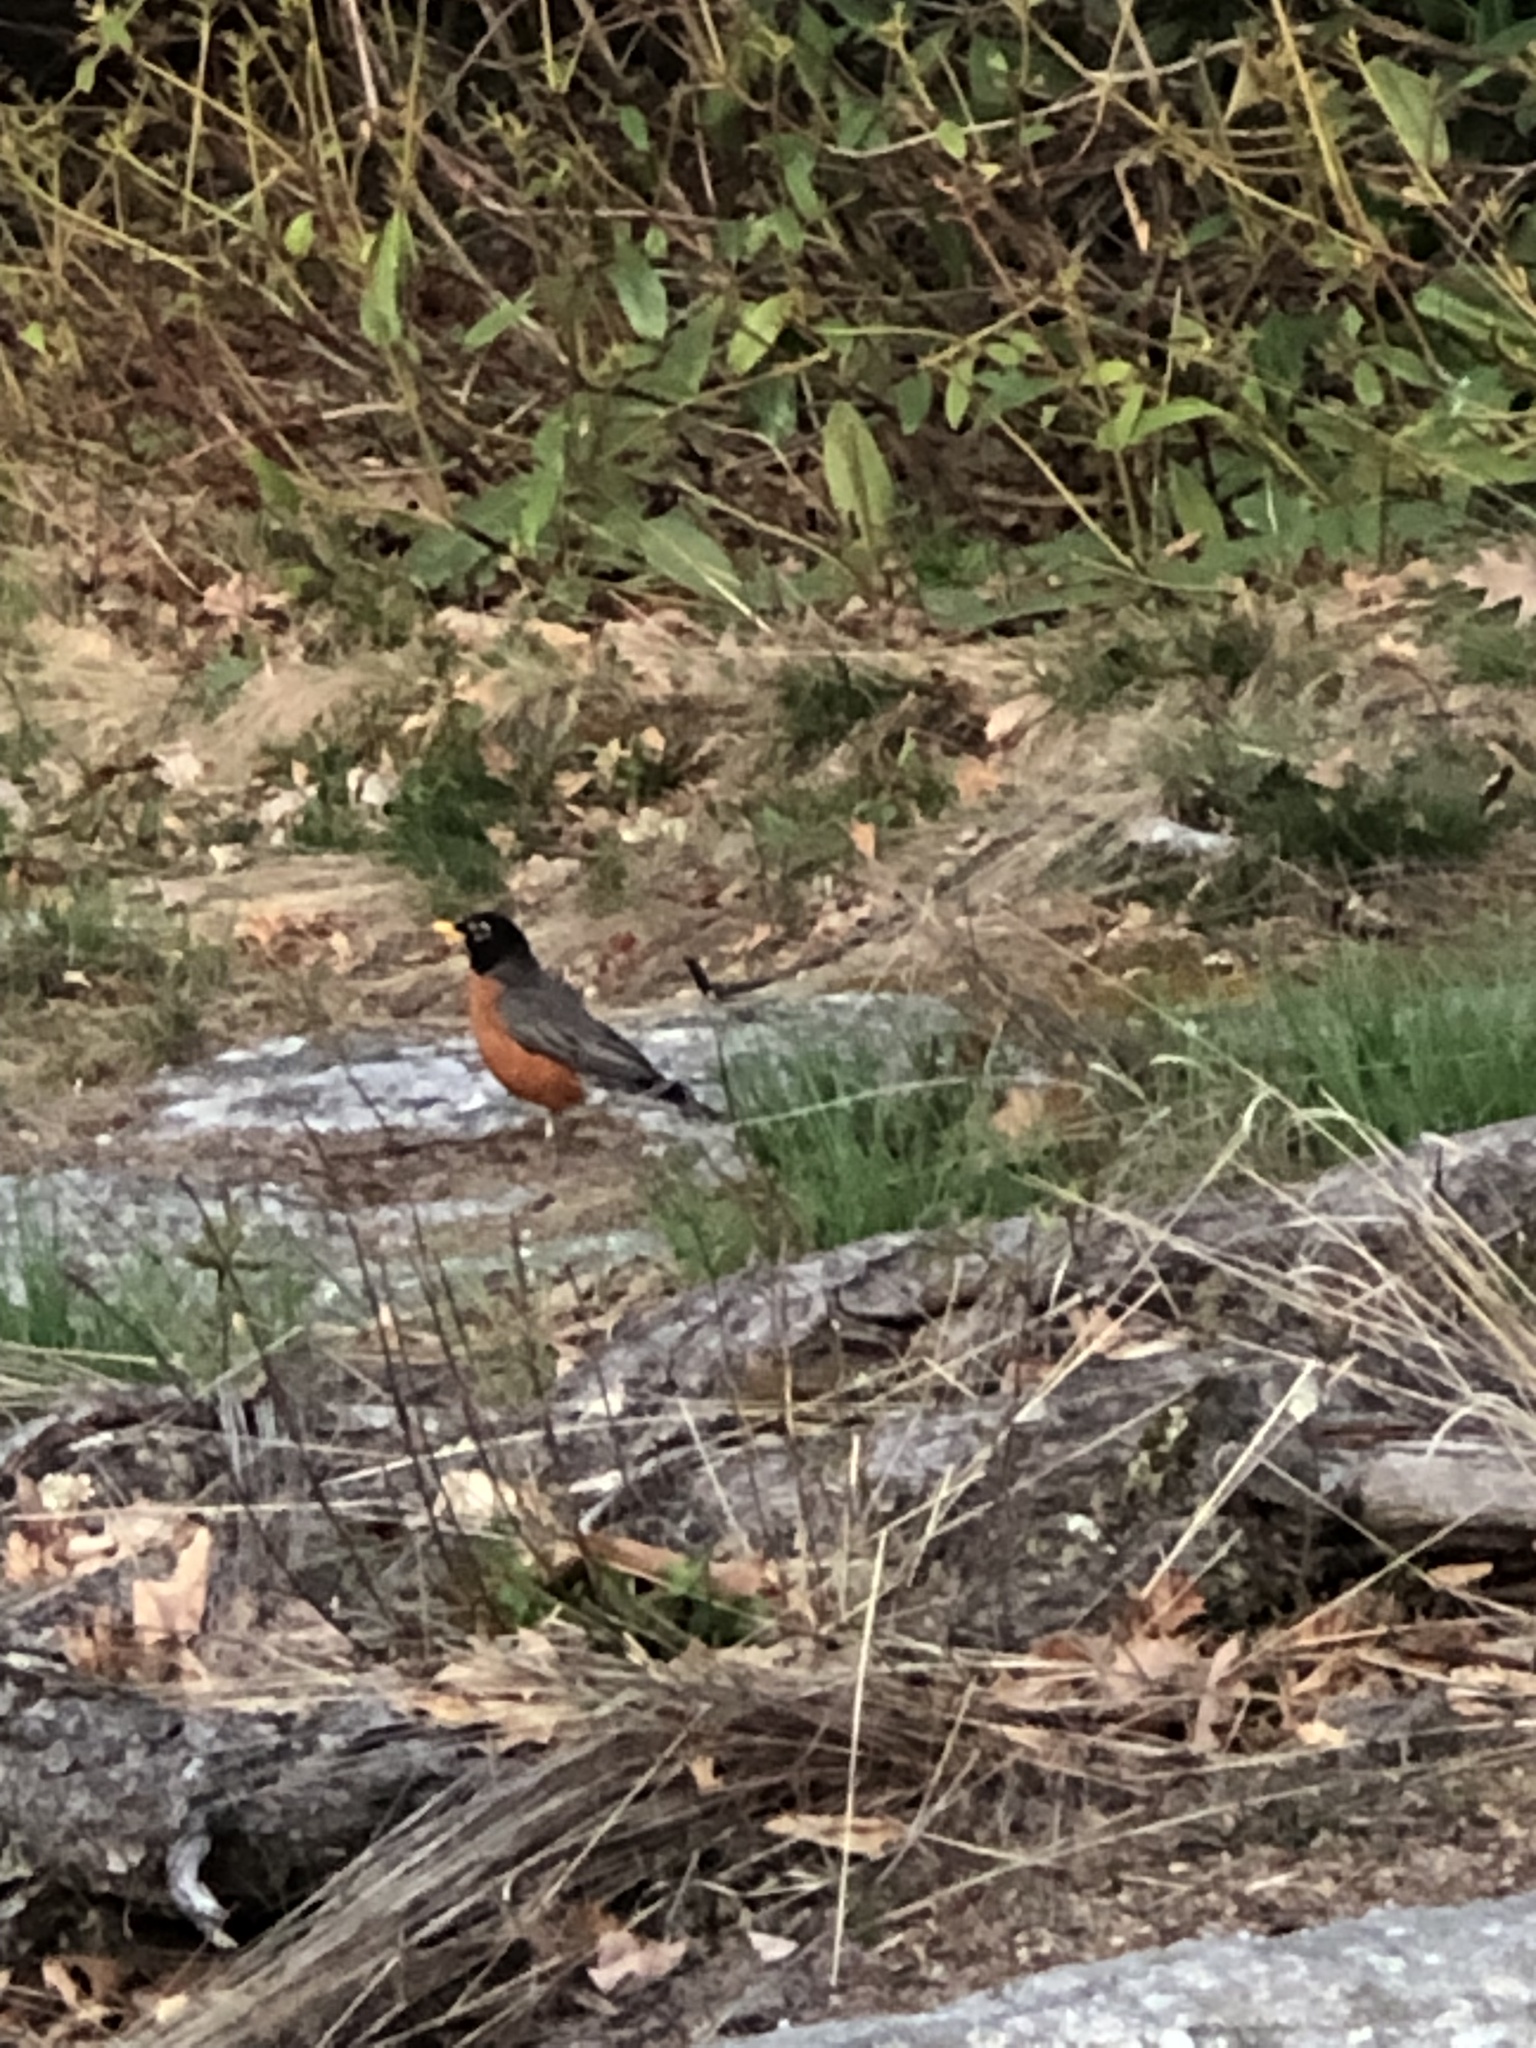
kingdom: Animalia
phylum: Chordata
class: Aves
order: Passeriformes
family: Turdidae
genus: Turdus
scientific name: Turdus migratorius
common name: American robin
